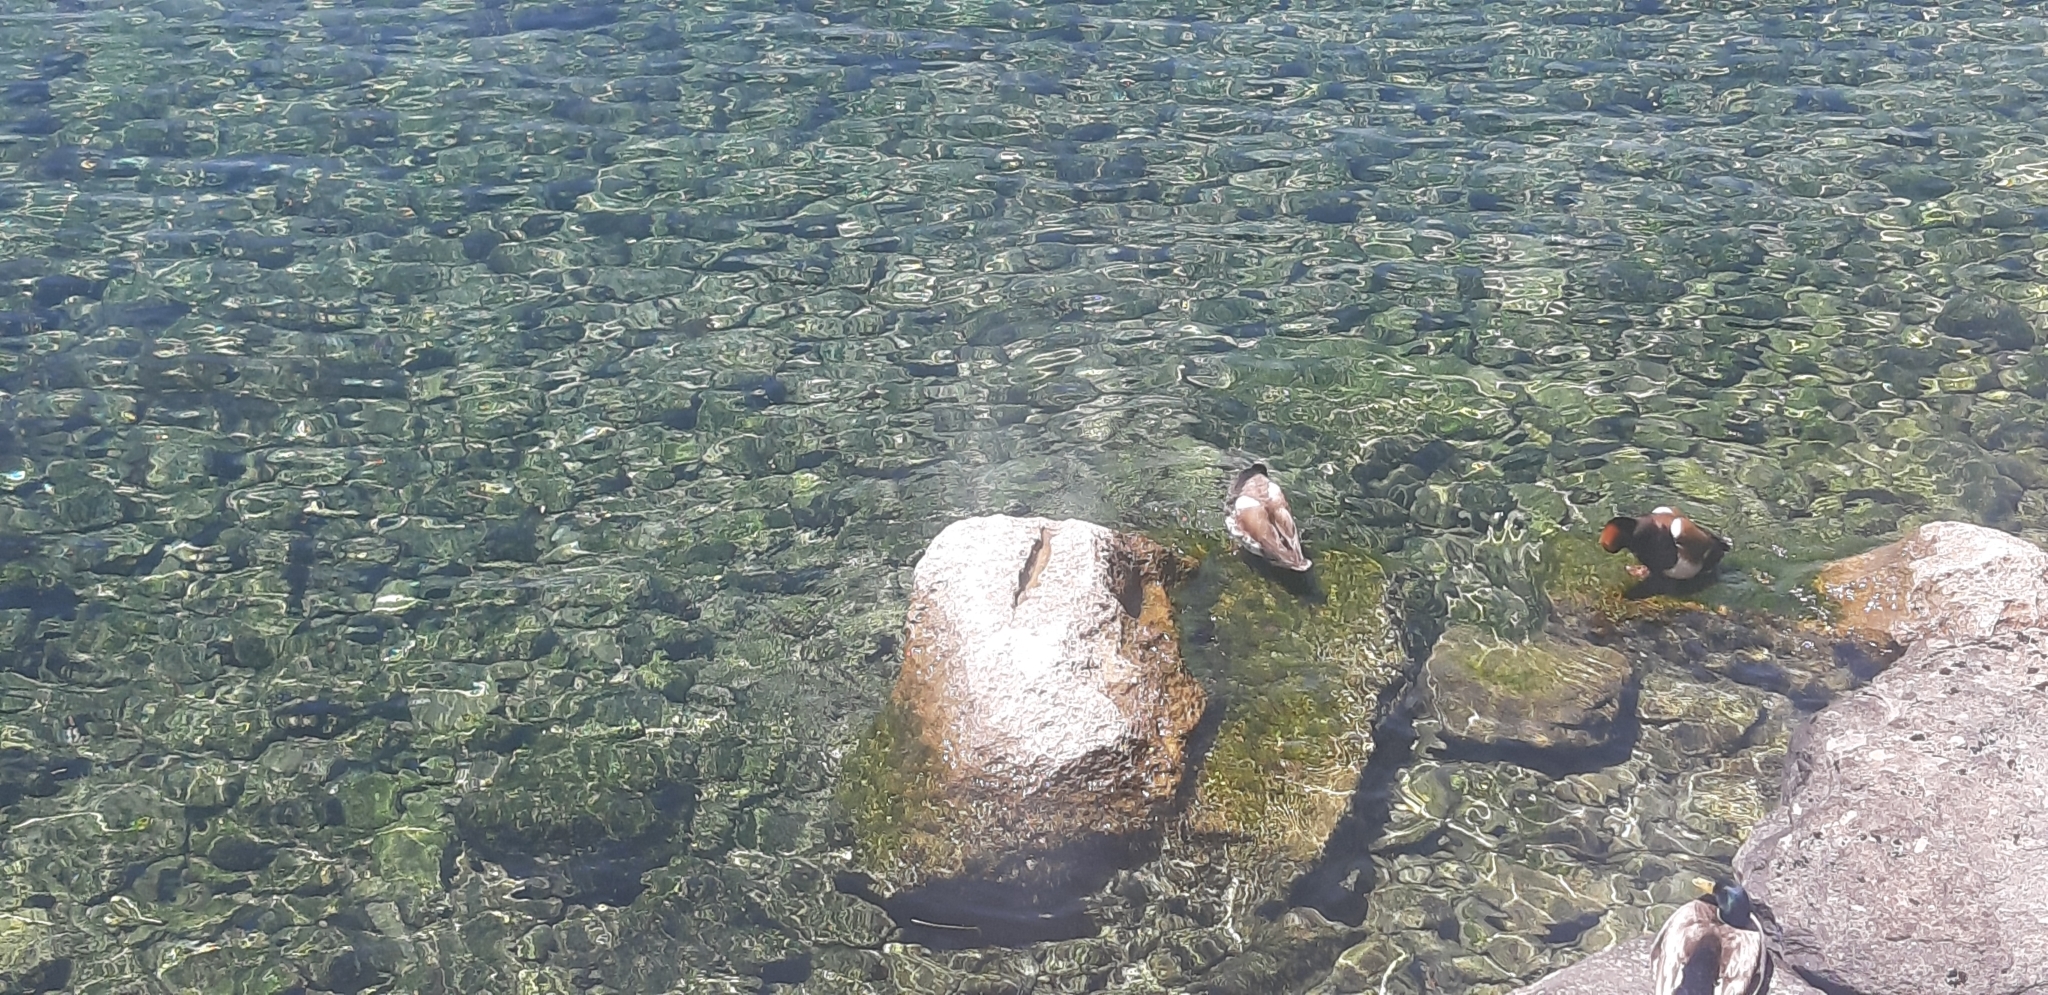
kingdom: Animalia
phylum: Chordata
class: Aves
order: Anseriformes
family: Anatidae
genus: Netta
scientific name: Netta rufina
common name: Red-crested pochard
